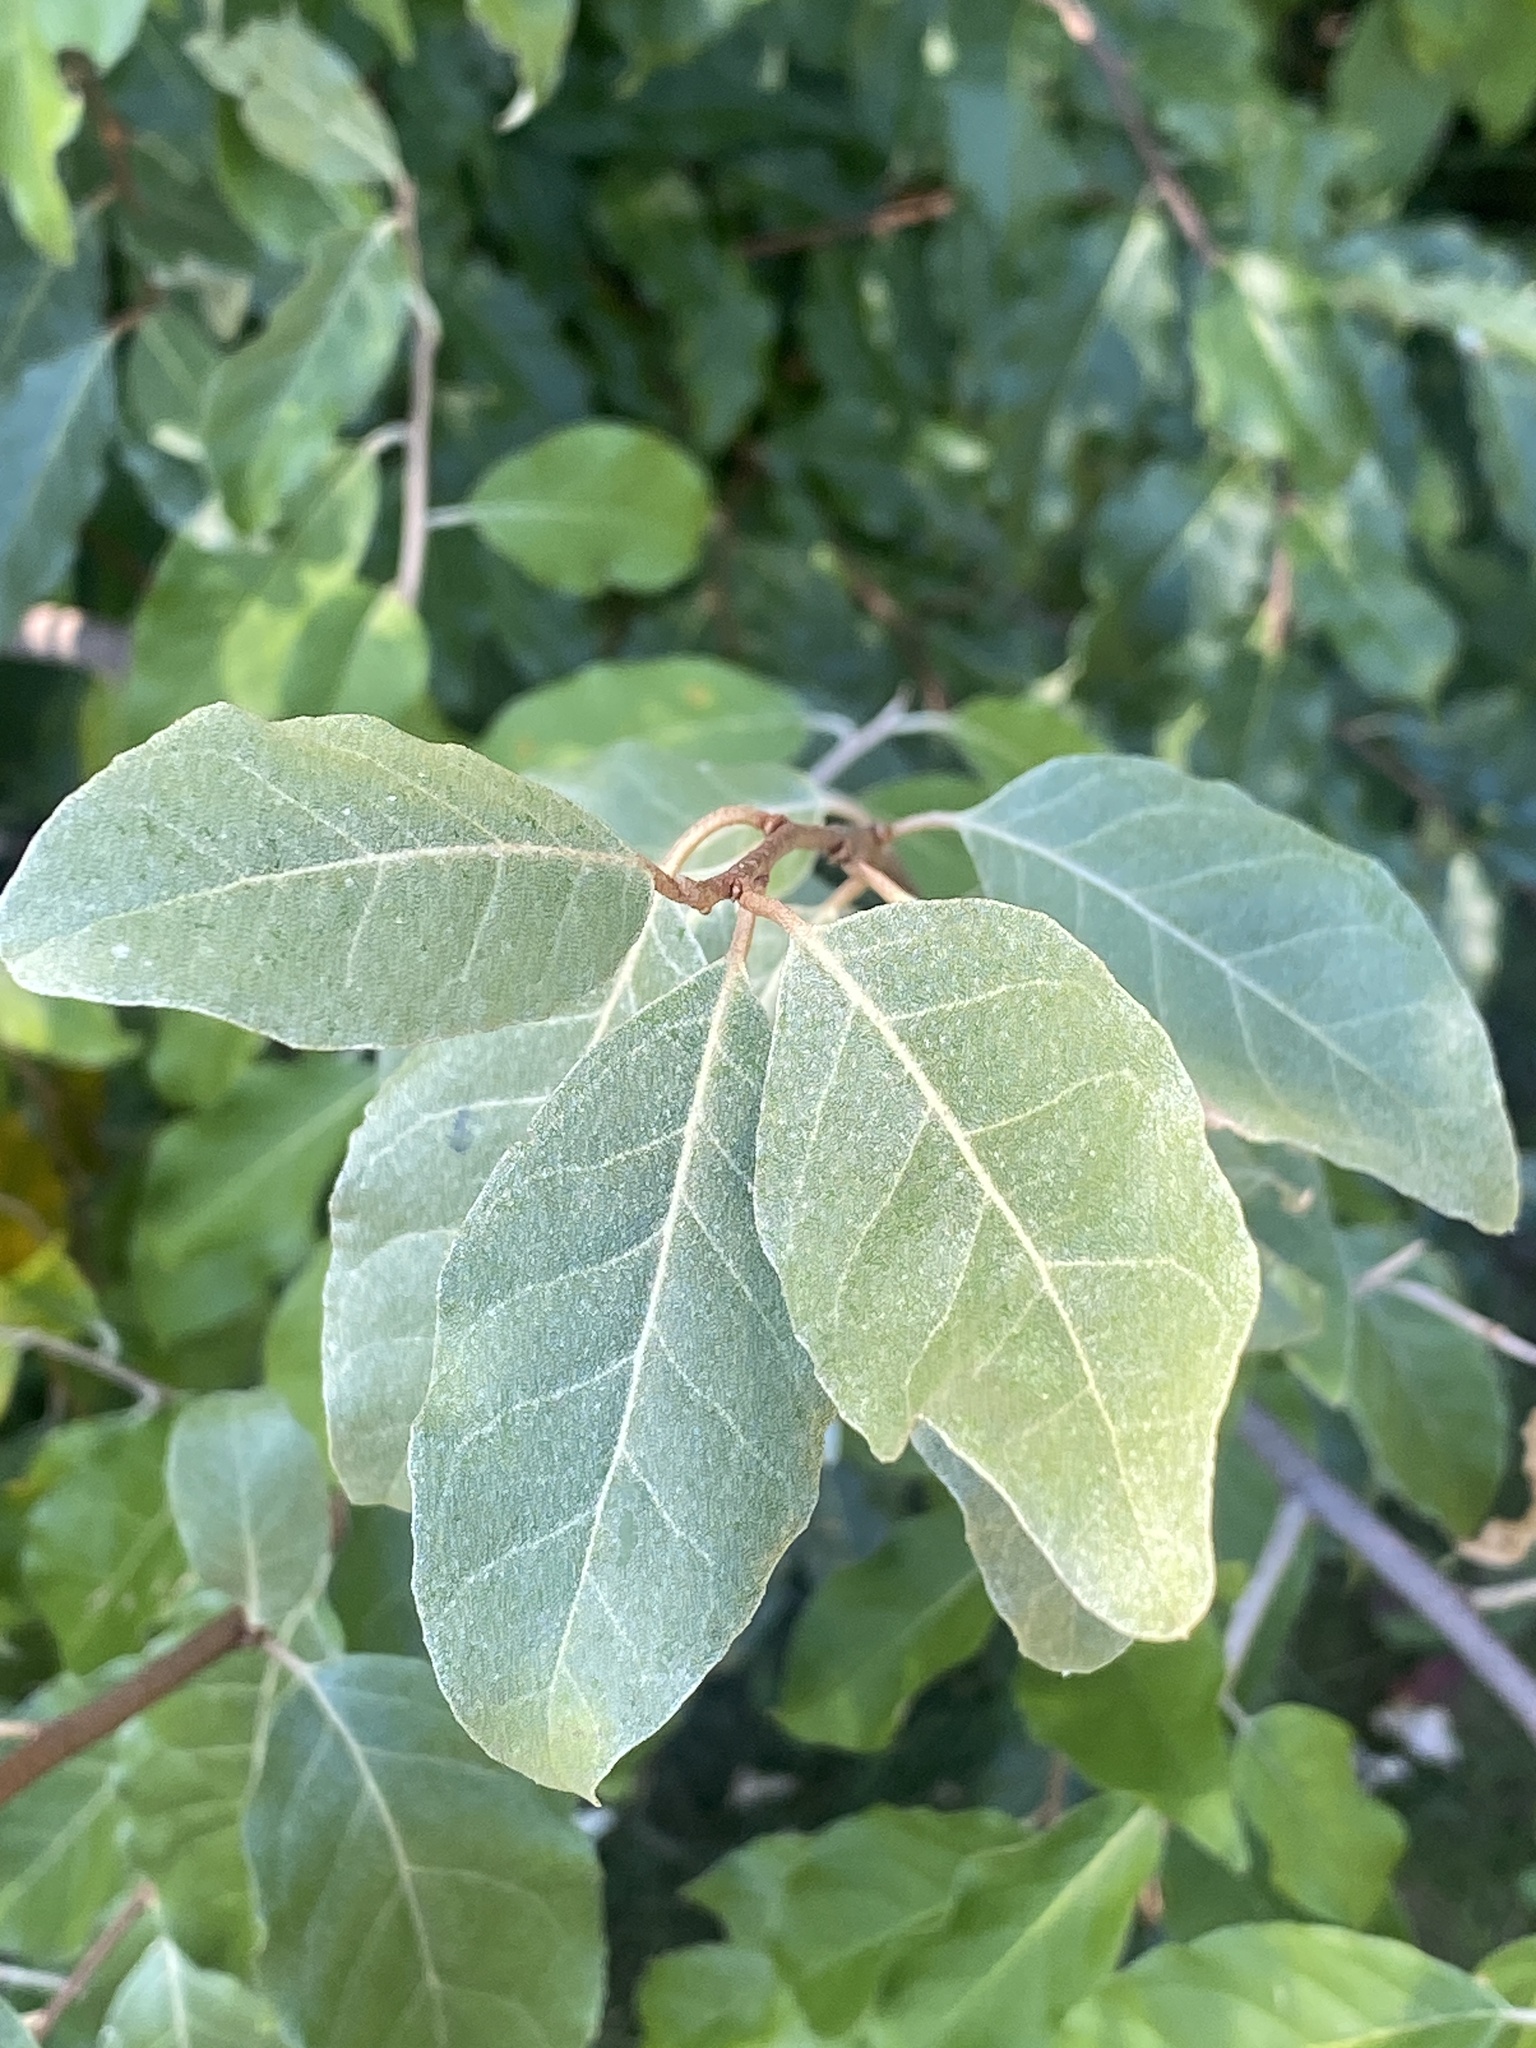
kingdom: Plantae
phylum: Tracheophyta
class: Magnoliopsida
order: Rosales
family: Elaeagnaceae
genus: Elaeagnus
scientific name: Elaeagnus umbellata
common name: Autumn olive
